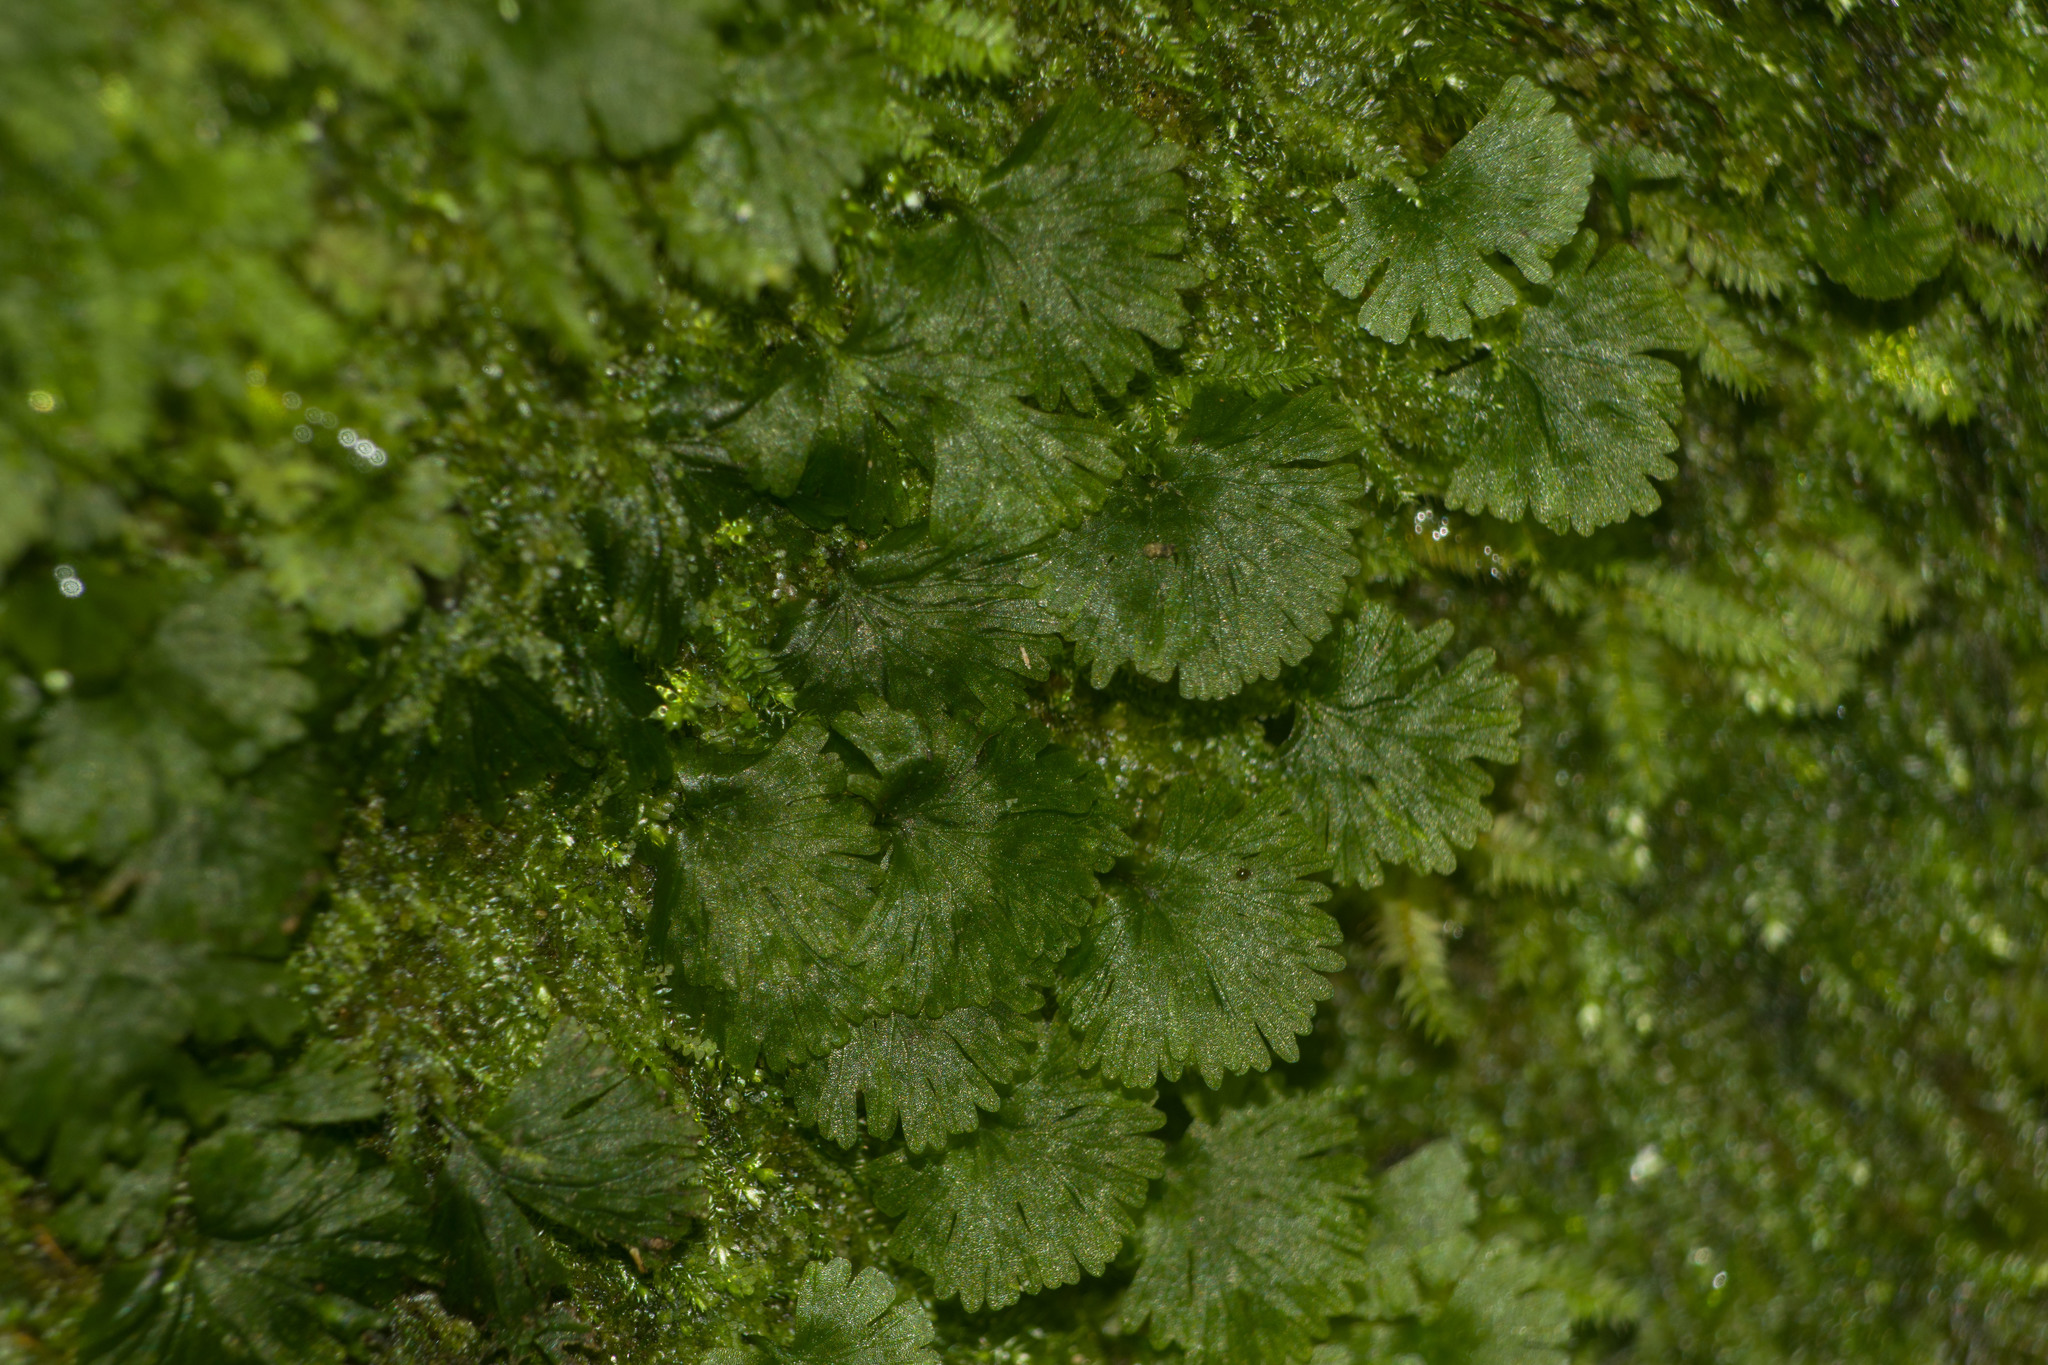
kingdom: Plantae
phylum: Tracheophyta
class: Polypodiopsida
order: Hymenophyllales
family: Hymenophyllaceae
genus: Crepidomanes
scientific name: Crepidomanes parvulum
